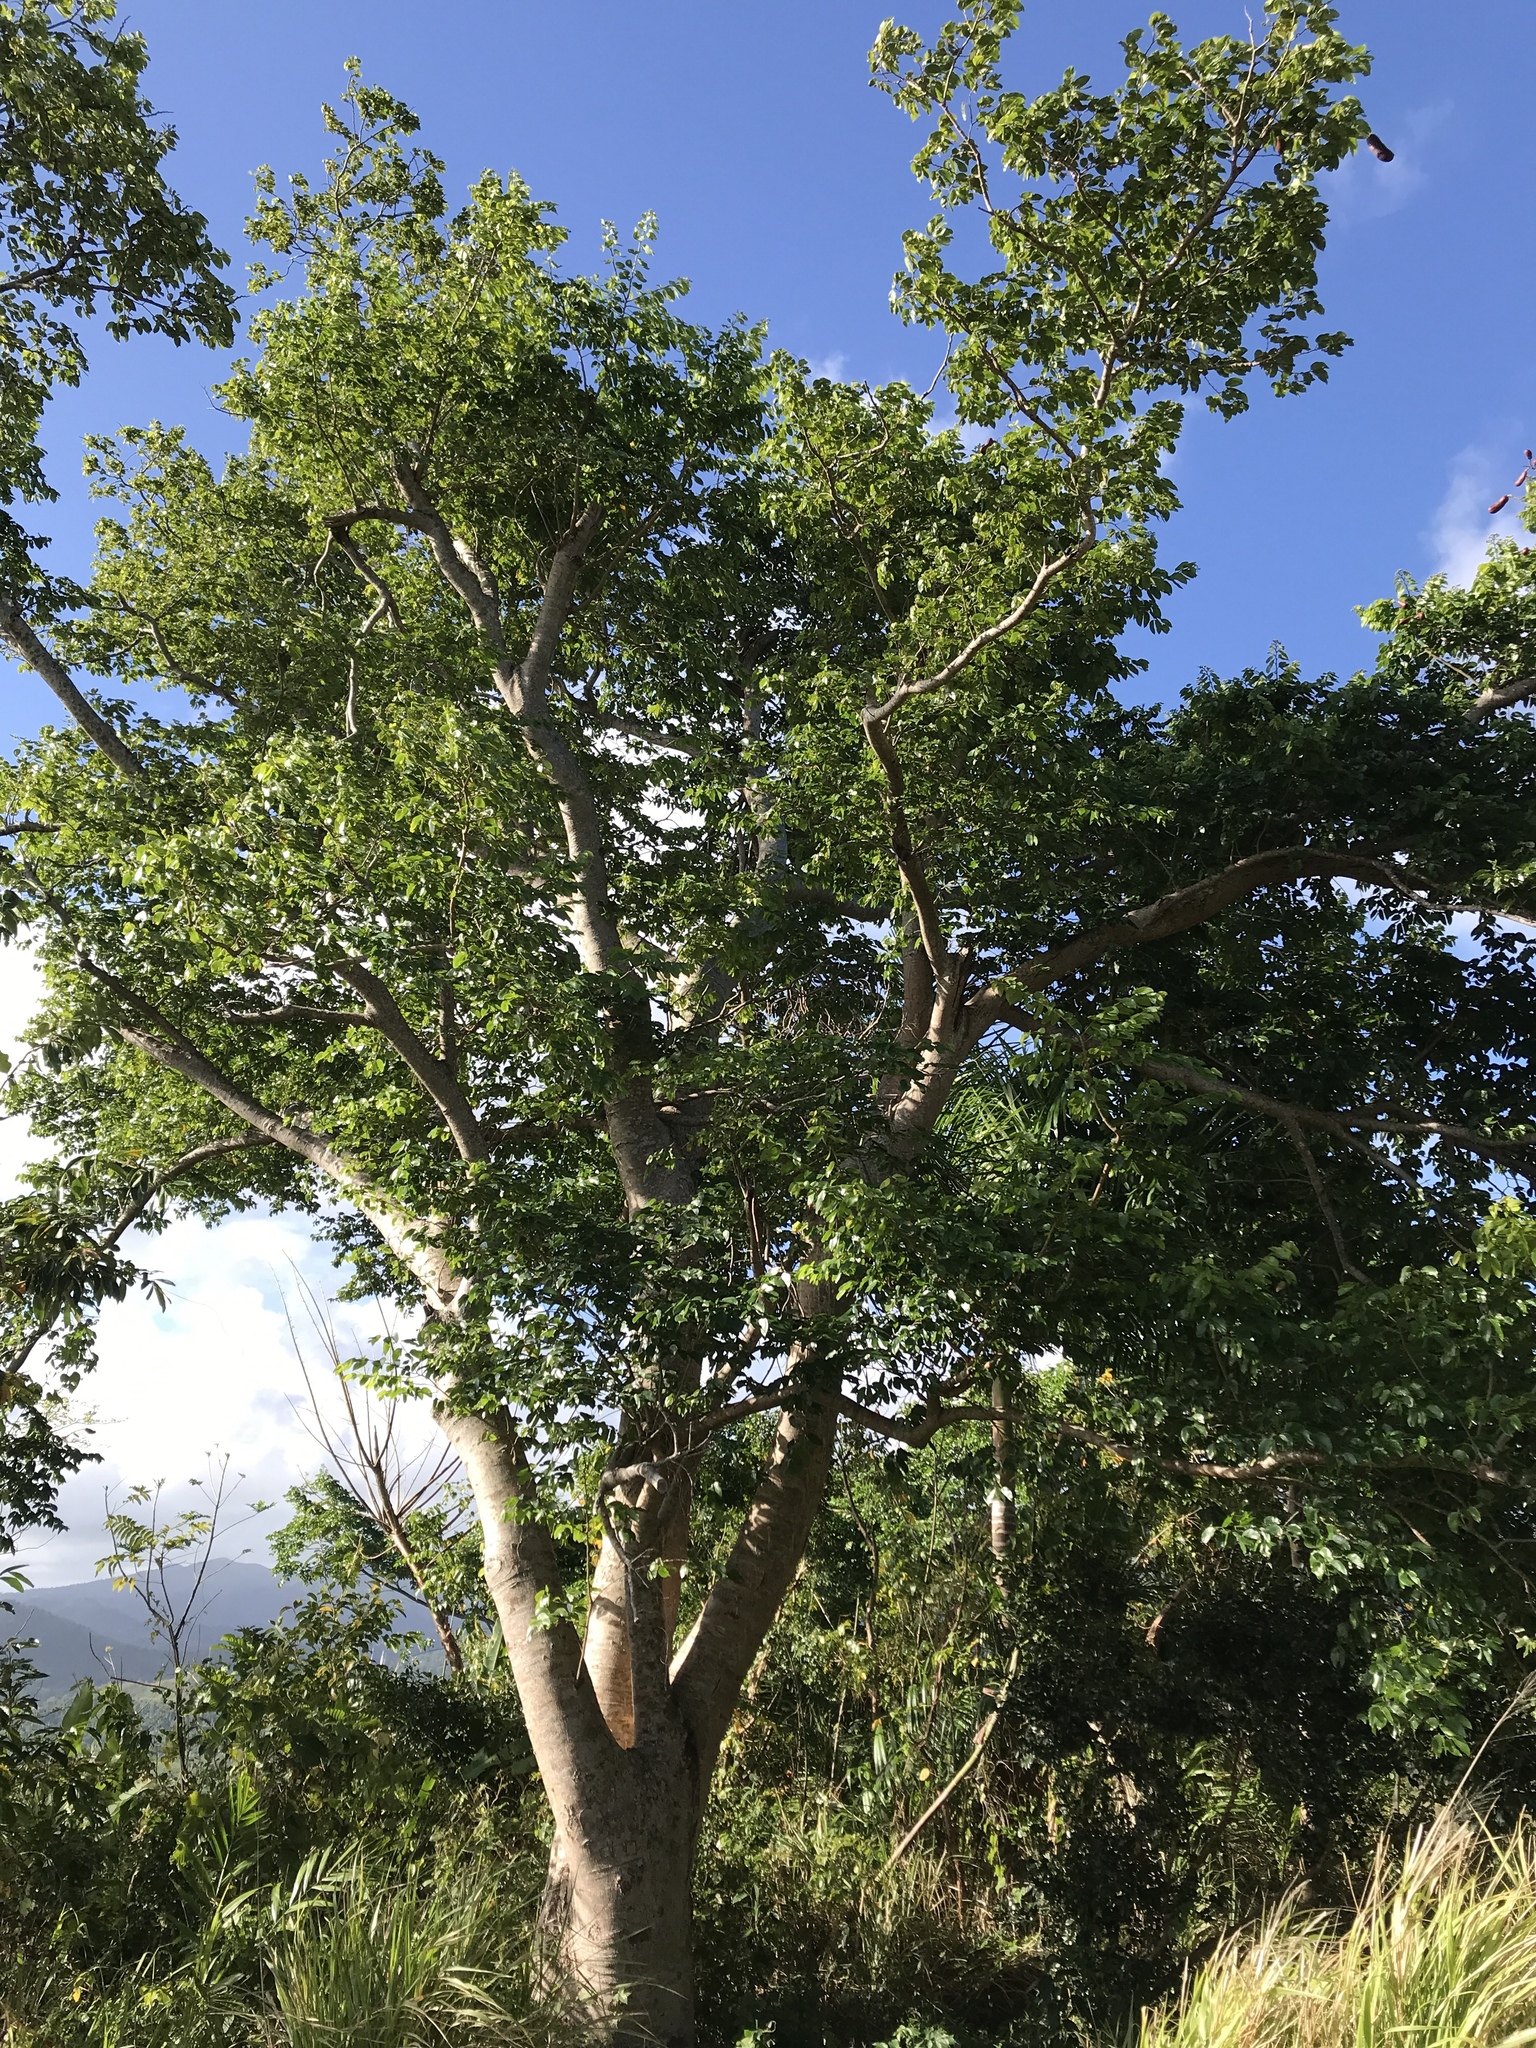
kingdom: Plantae
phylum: Tracheophyta
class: Magnoliopsida
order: Fabales
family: Fabaceae
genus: Hymenaea
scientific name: Hymenaea courbaril
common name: Brazilian copal
